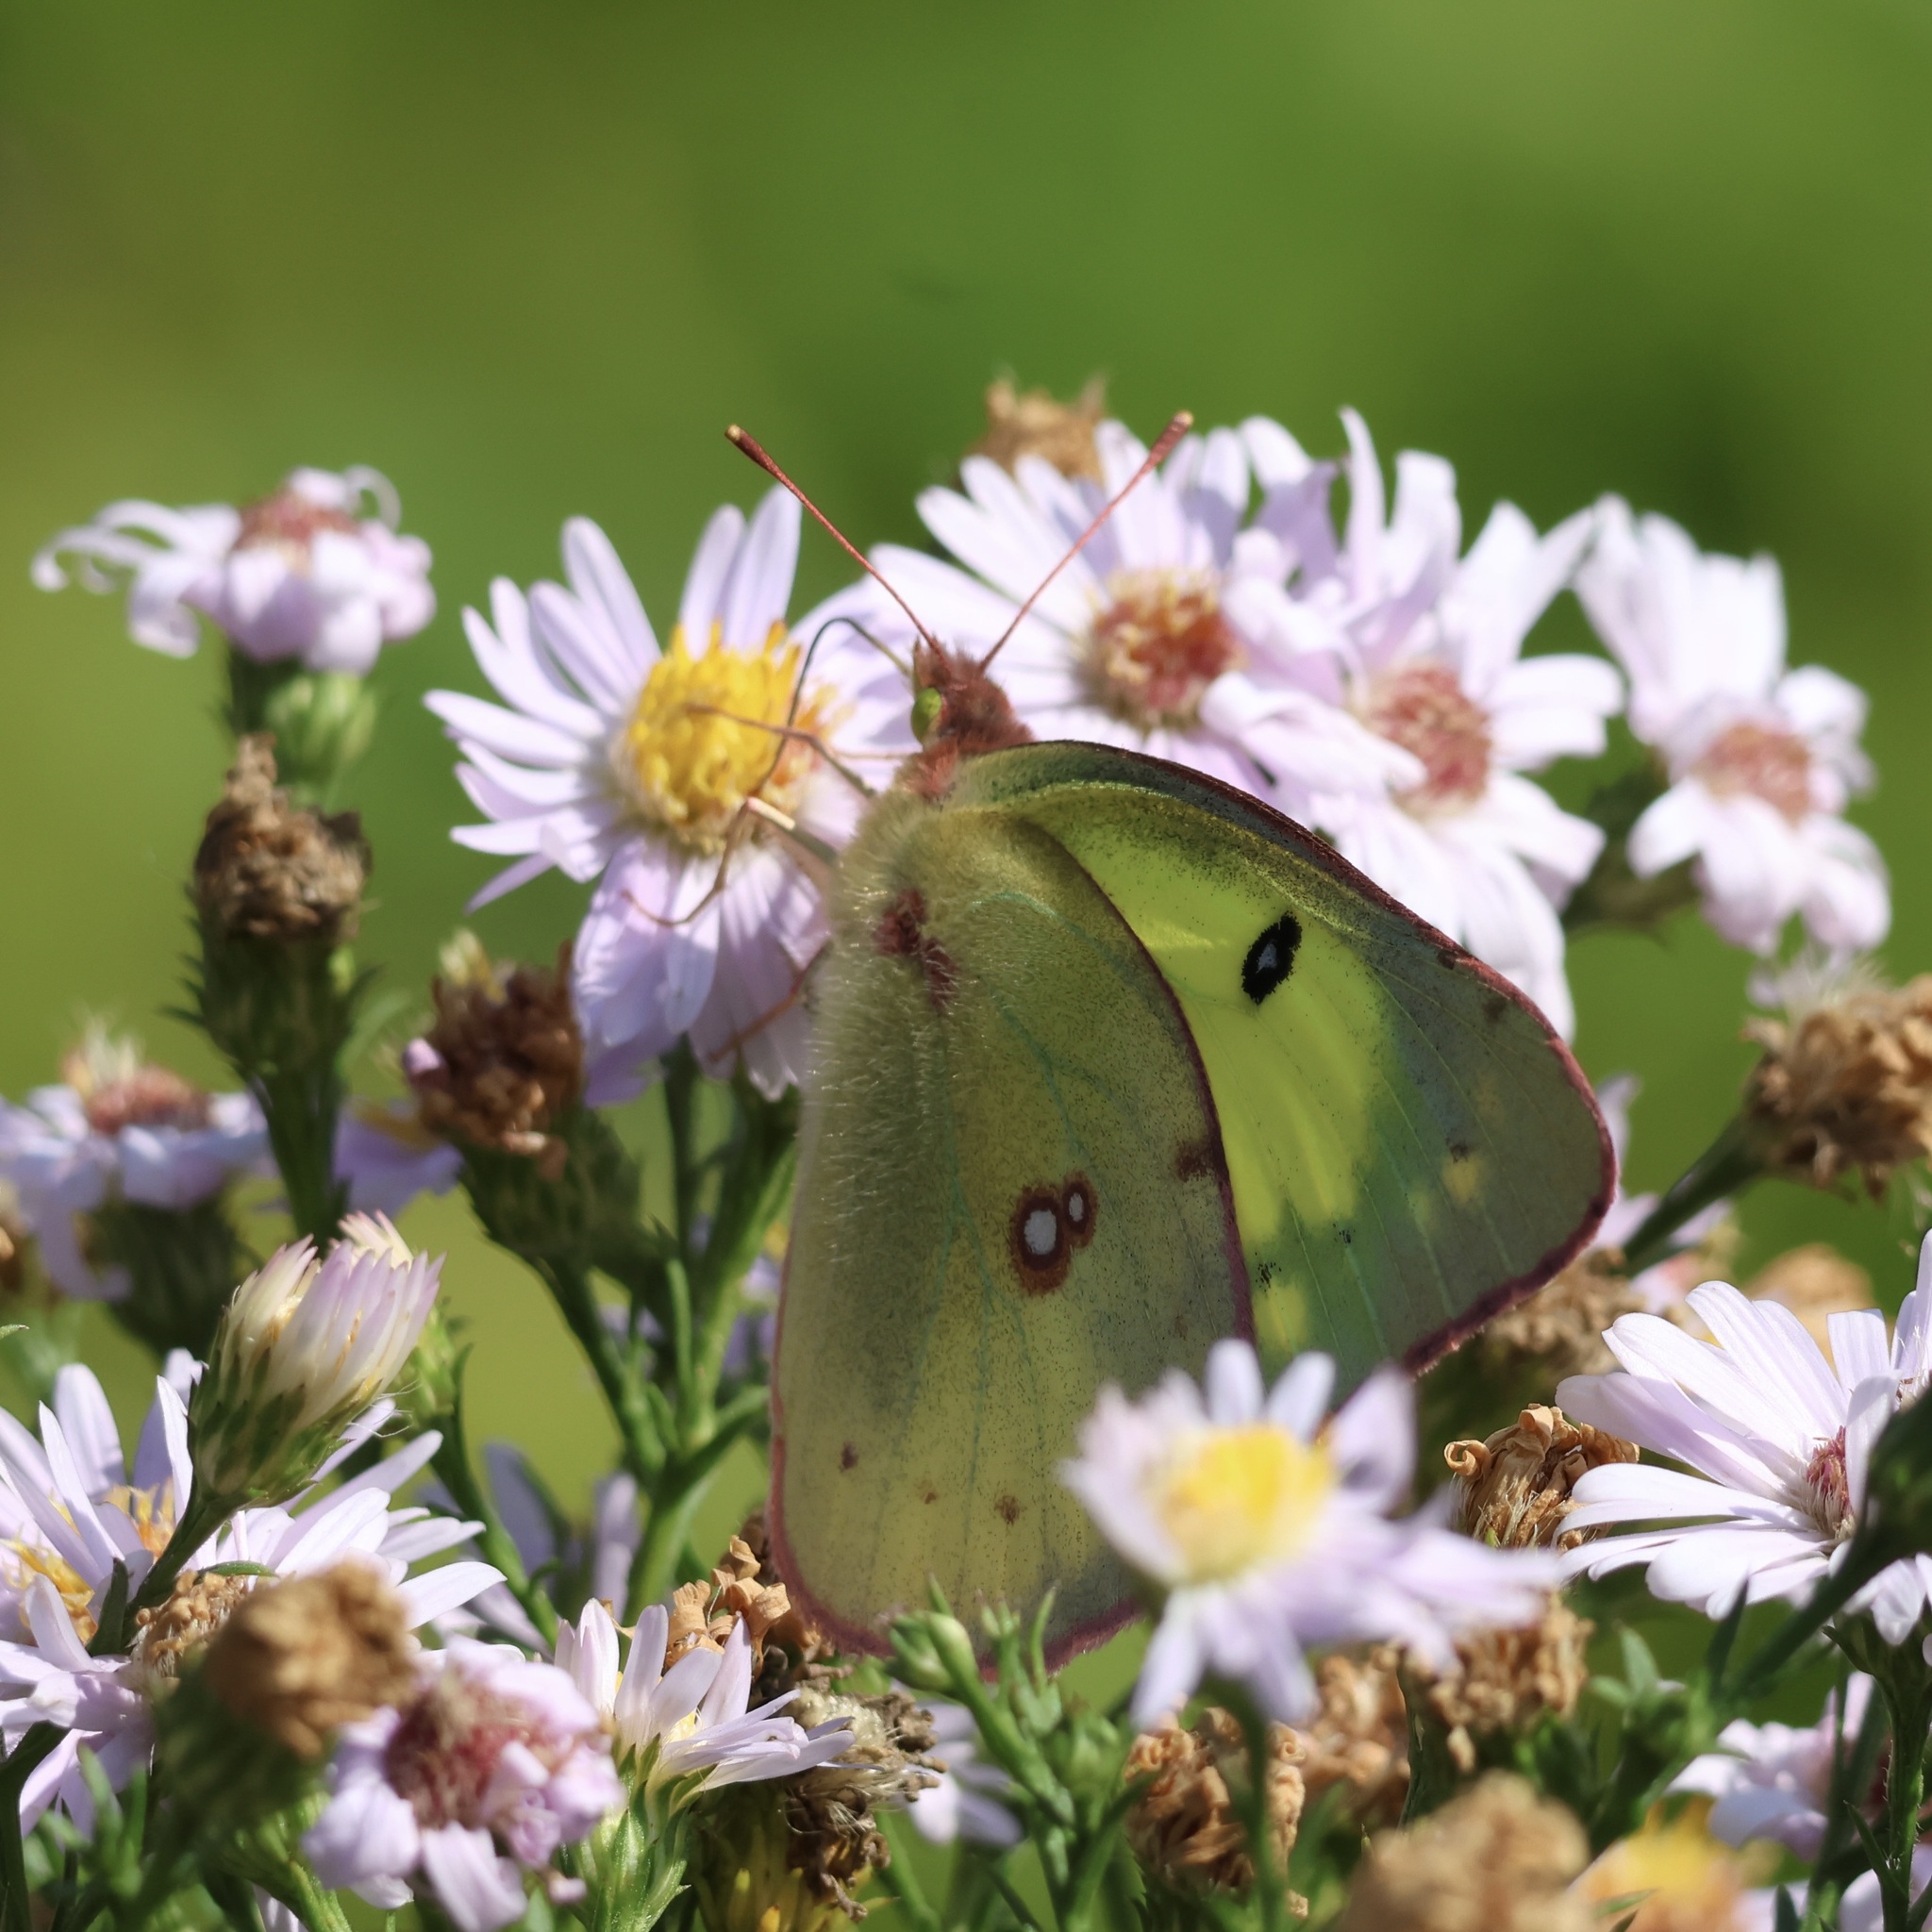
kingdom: Animalia
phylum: Arthropoda
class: Insecta
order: Lepidoptera
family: Pieridae
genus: Colias
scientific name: Colias philodice
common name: Clouded sulphur
